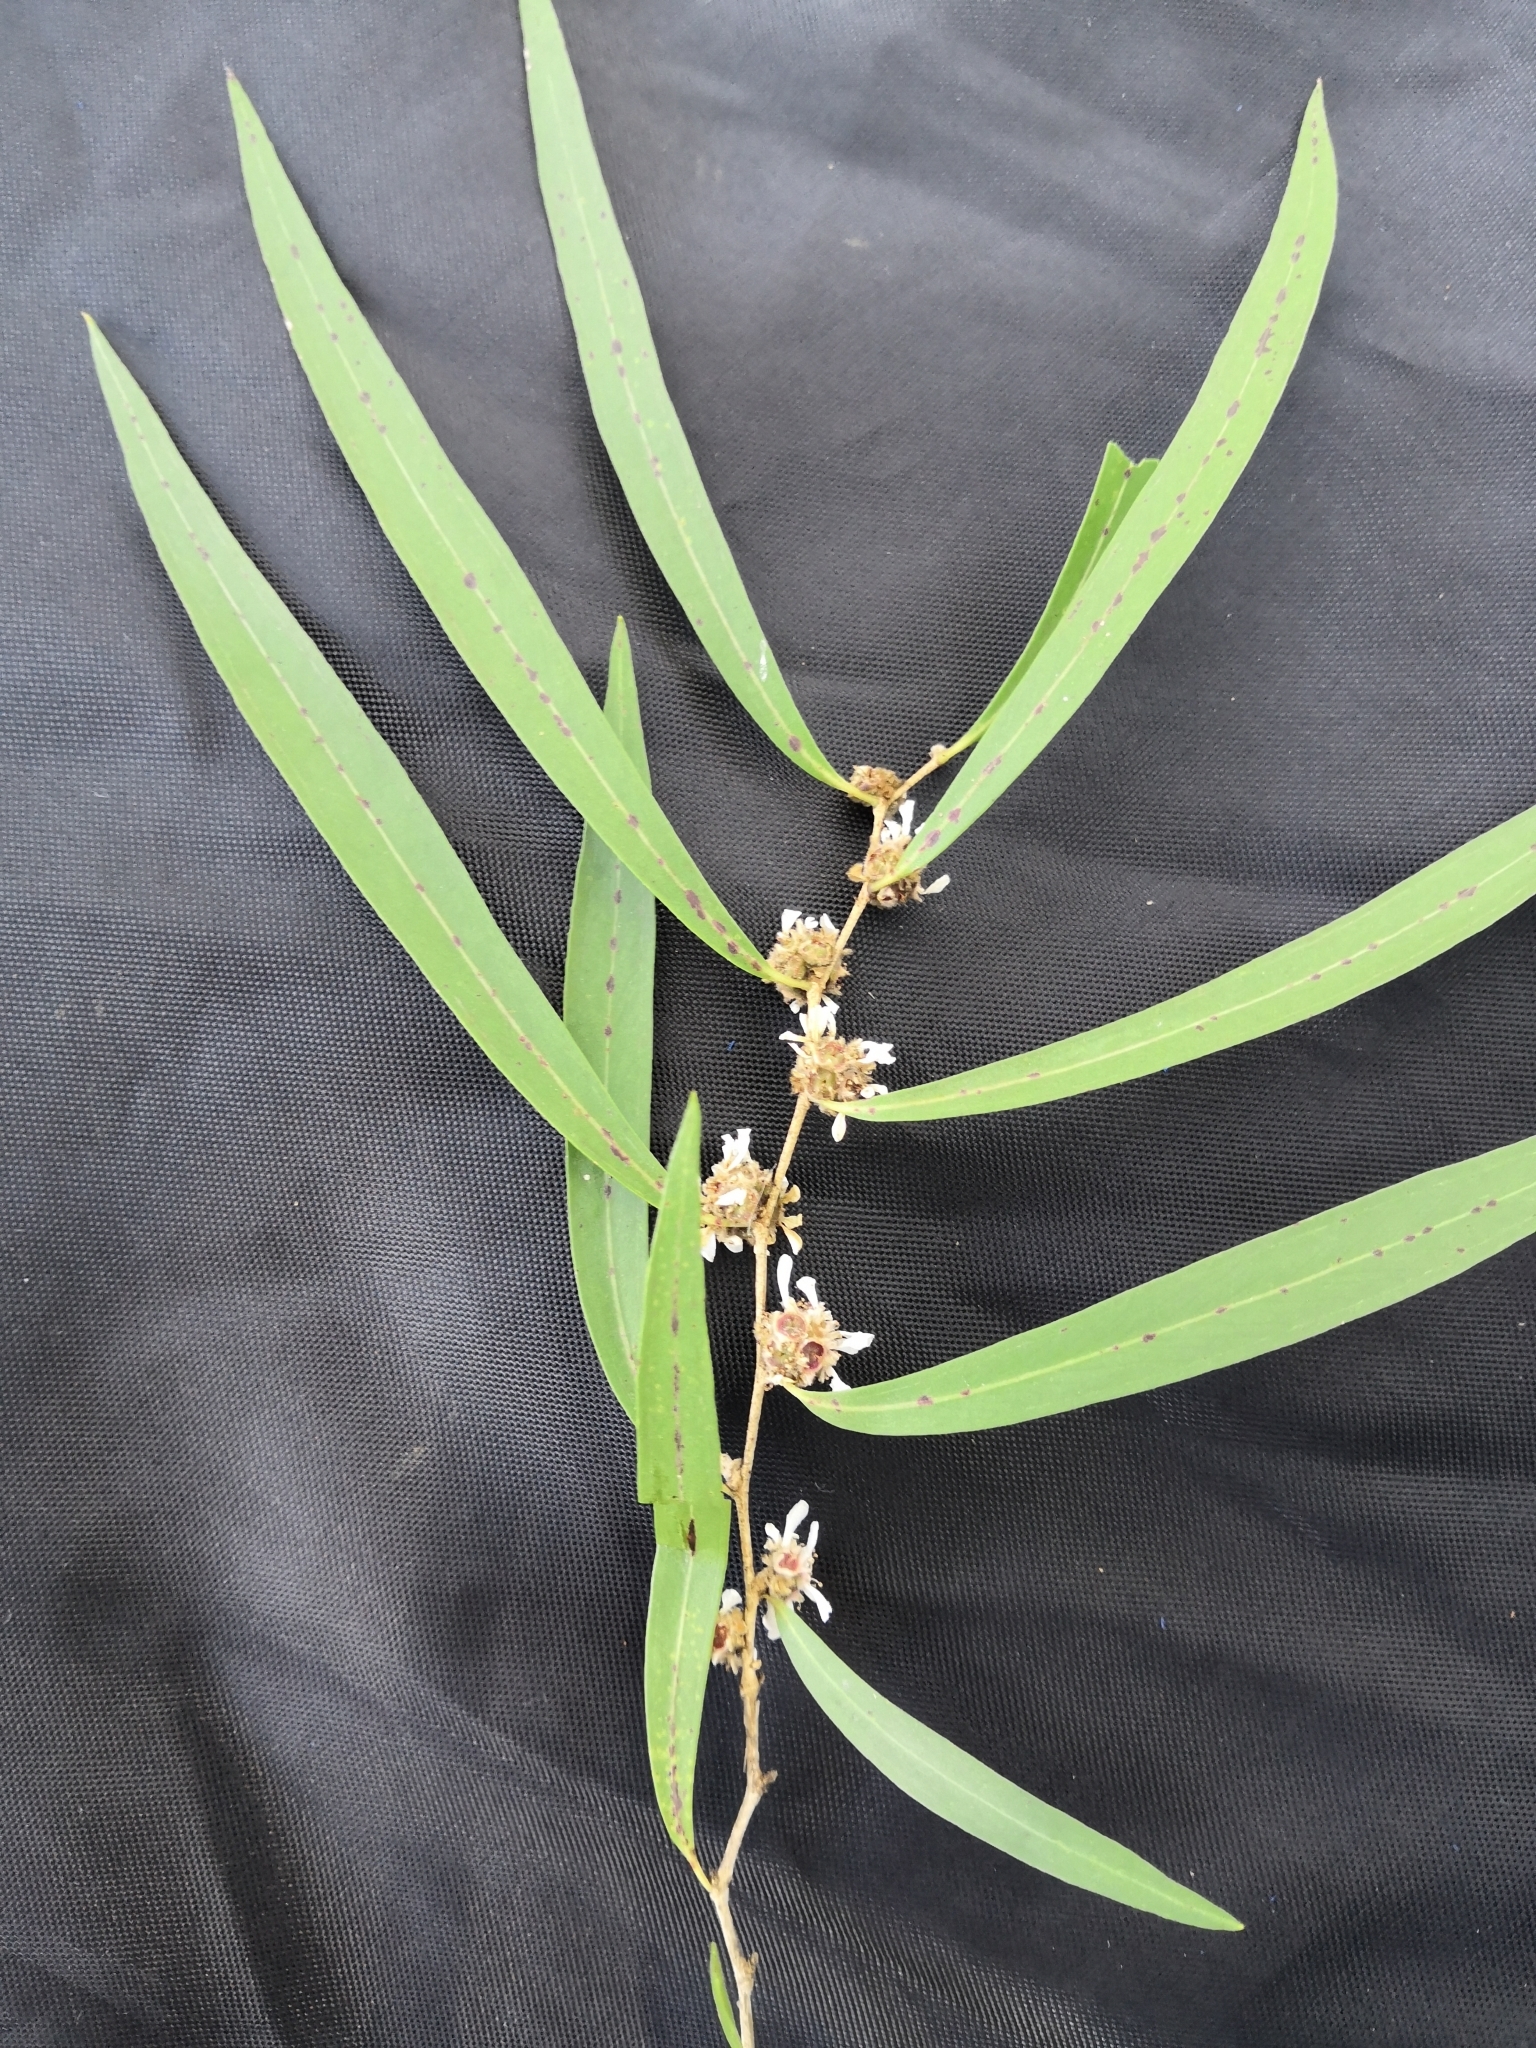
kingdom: Plantae
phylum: Tracheophyta
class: Magnoliopsida
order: Myrtales
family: Myrtaceae
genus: Agonis
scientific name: Agonis flexuosa
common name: Willow myrtle
